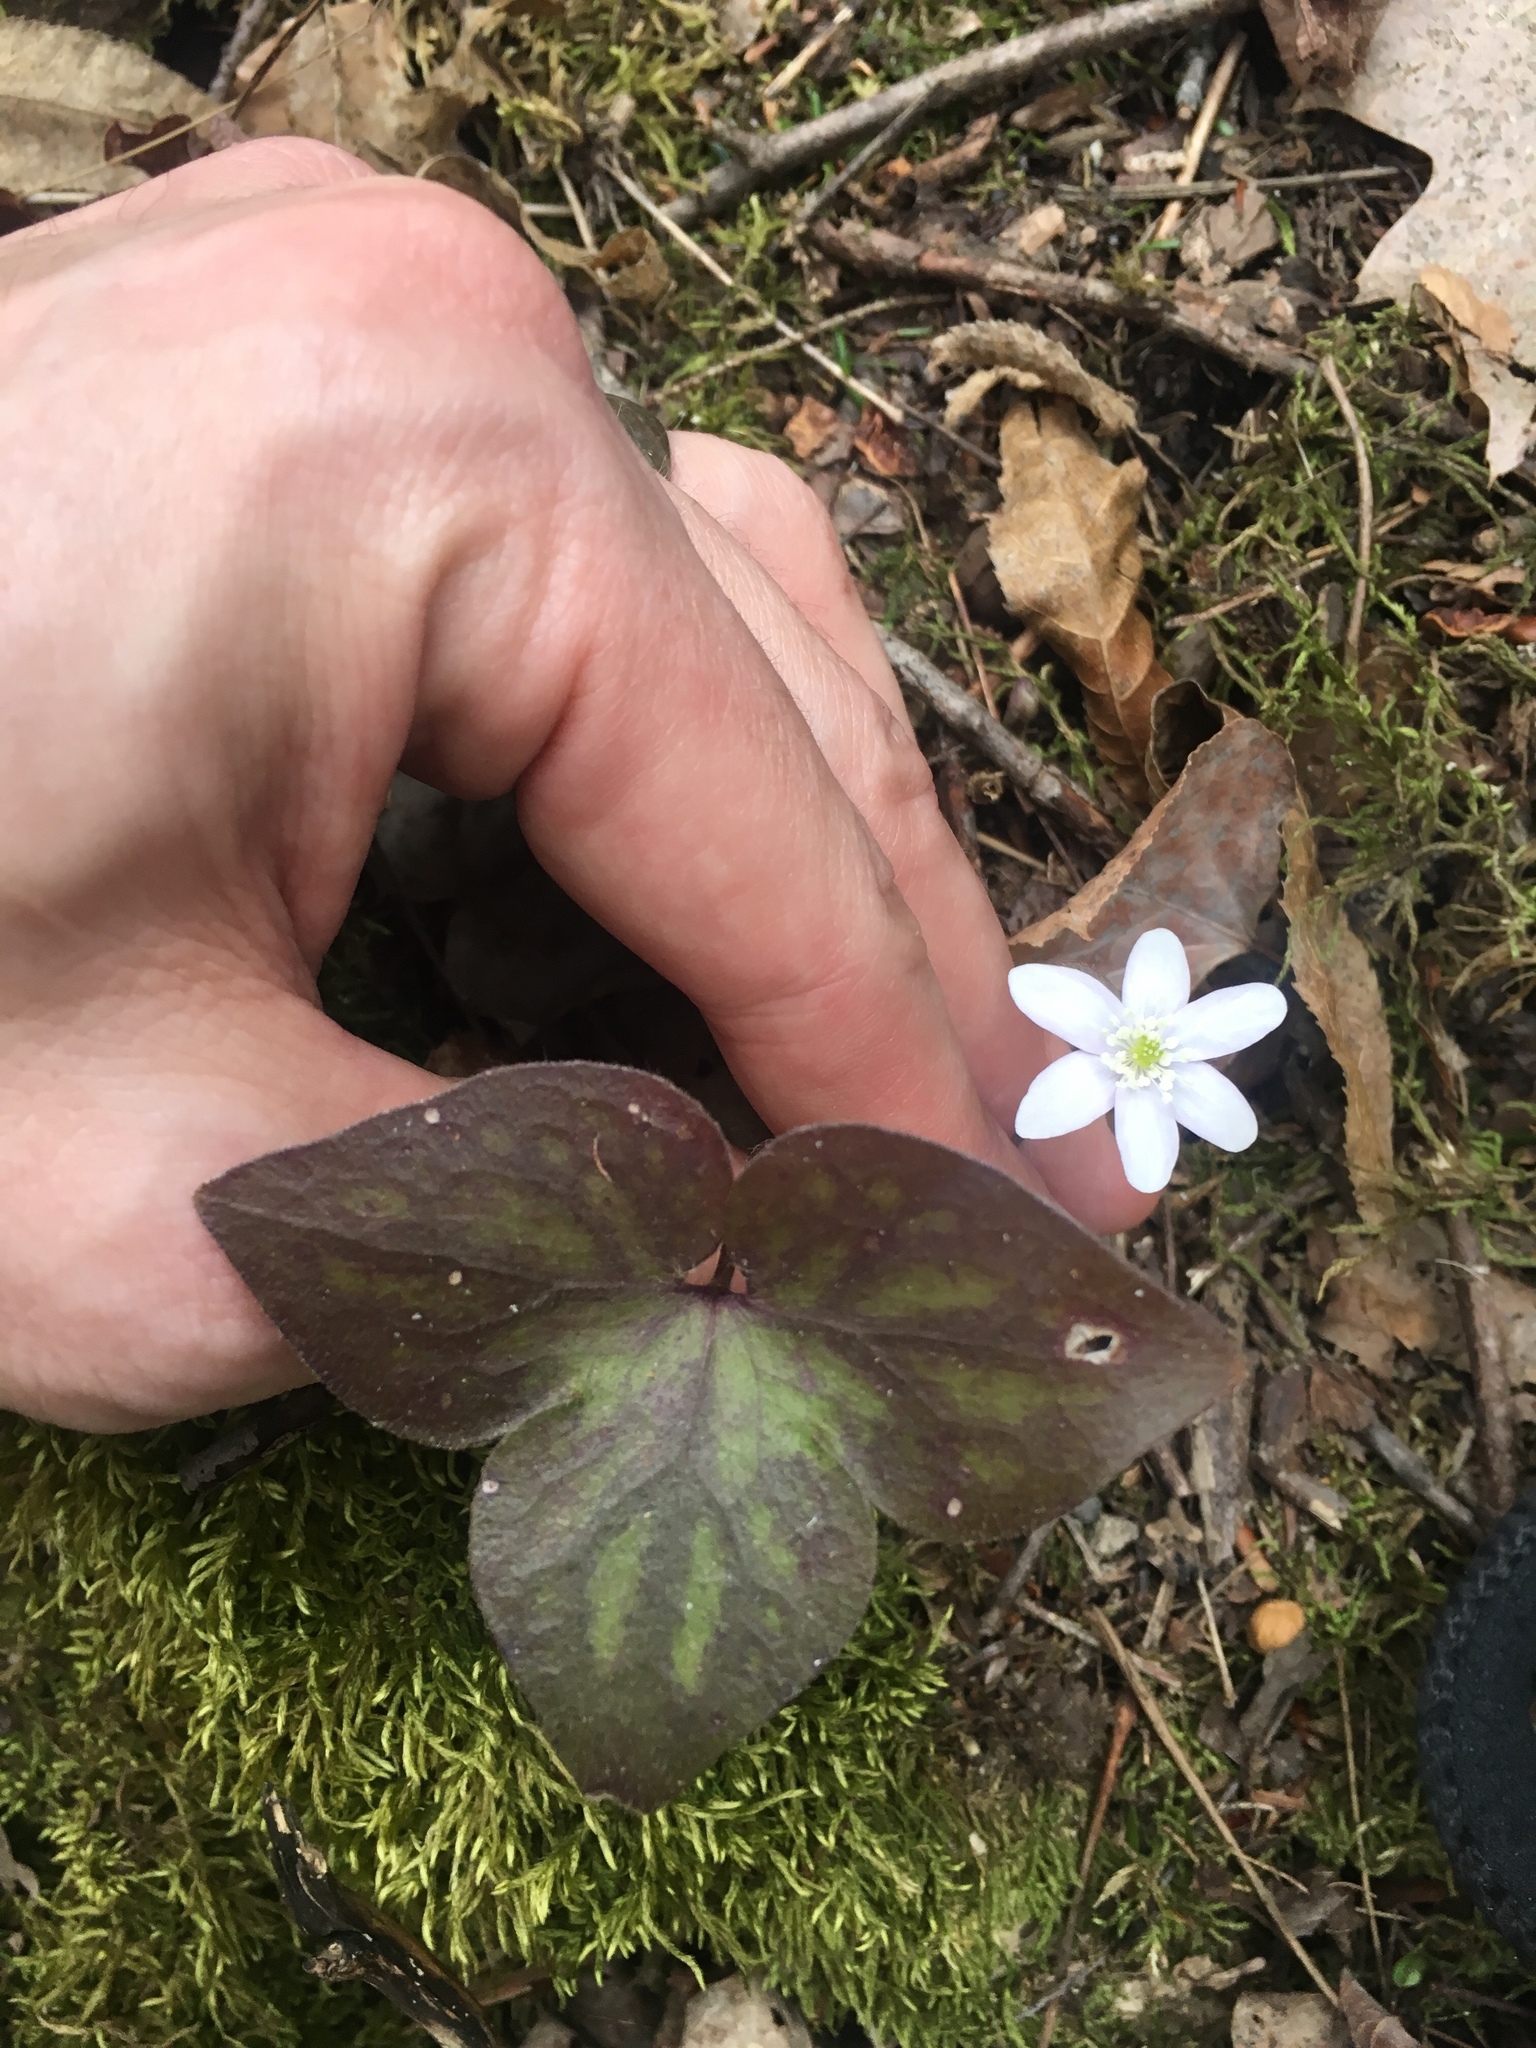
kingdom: Plantae
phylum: Tracheophyta
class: Magnoliopsida
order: Ranunculales
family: Ranunculaceae
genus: Hepatica
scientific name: Hepatica acutiloba
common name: Sharp-lobed hepatica
